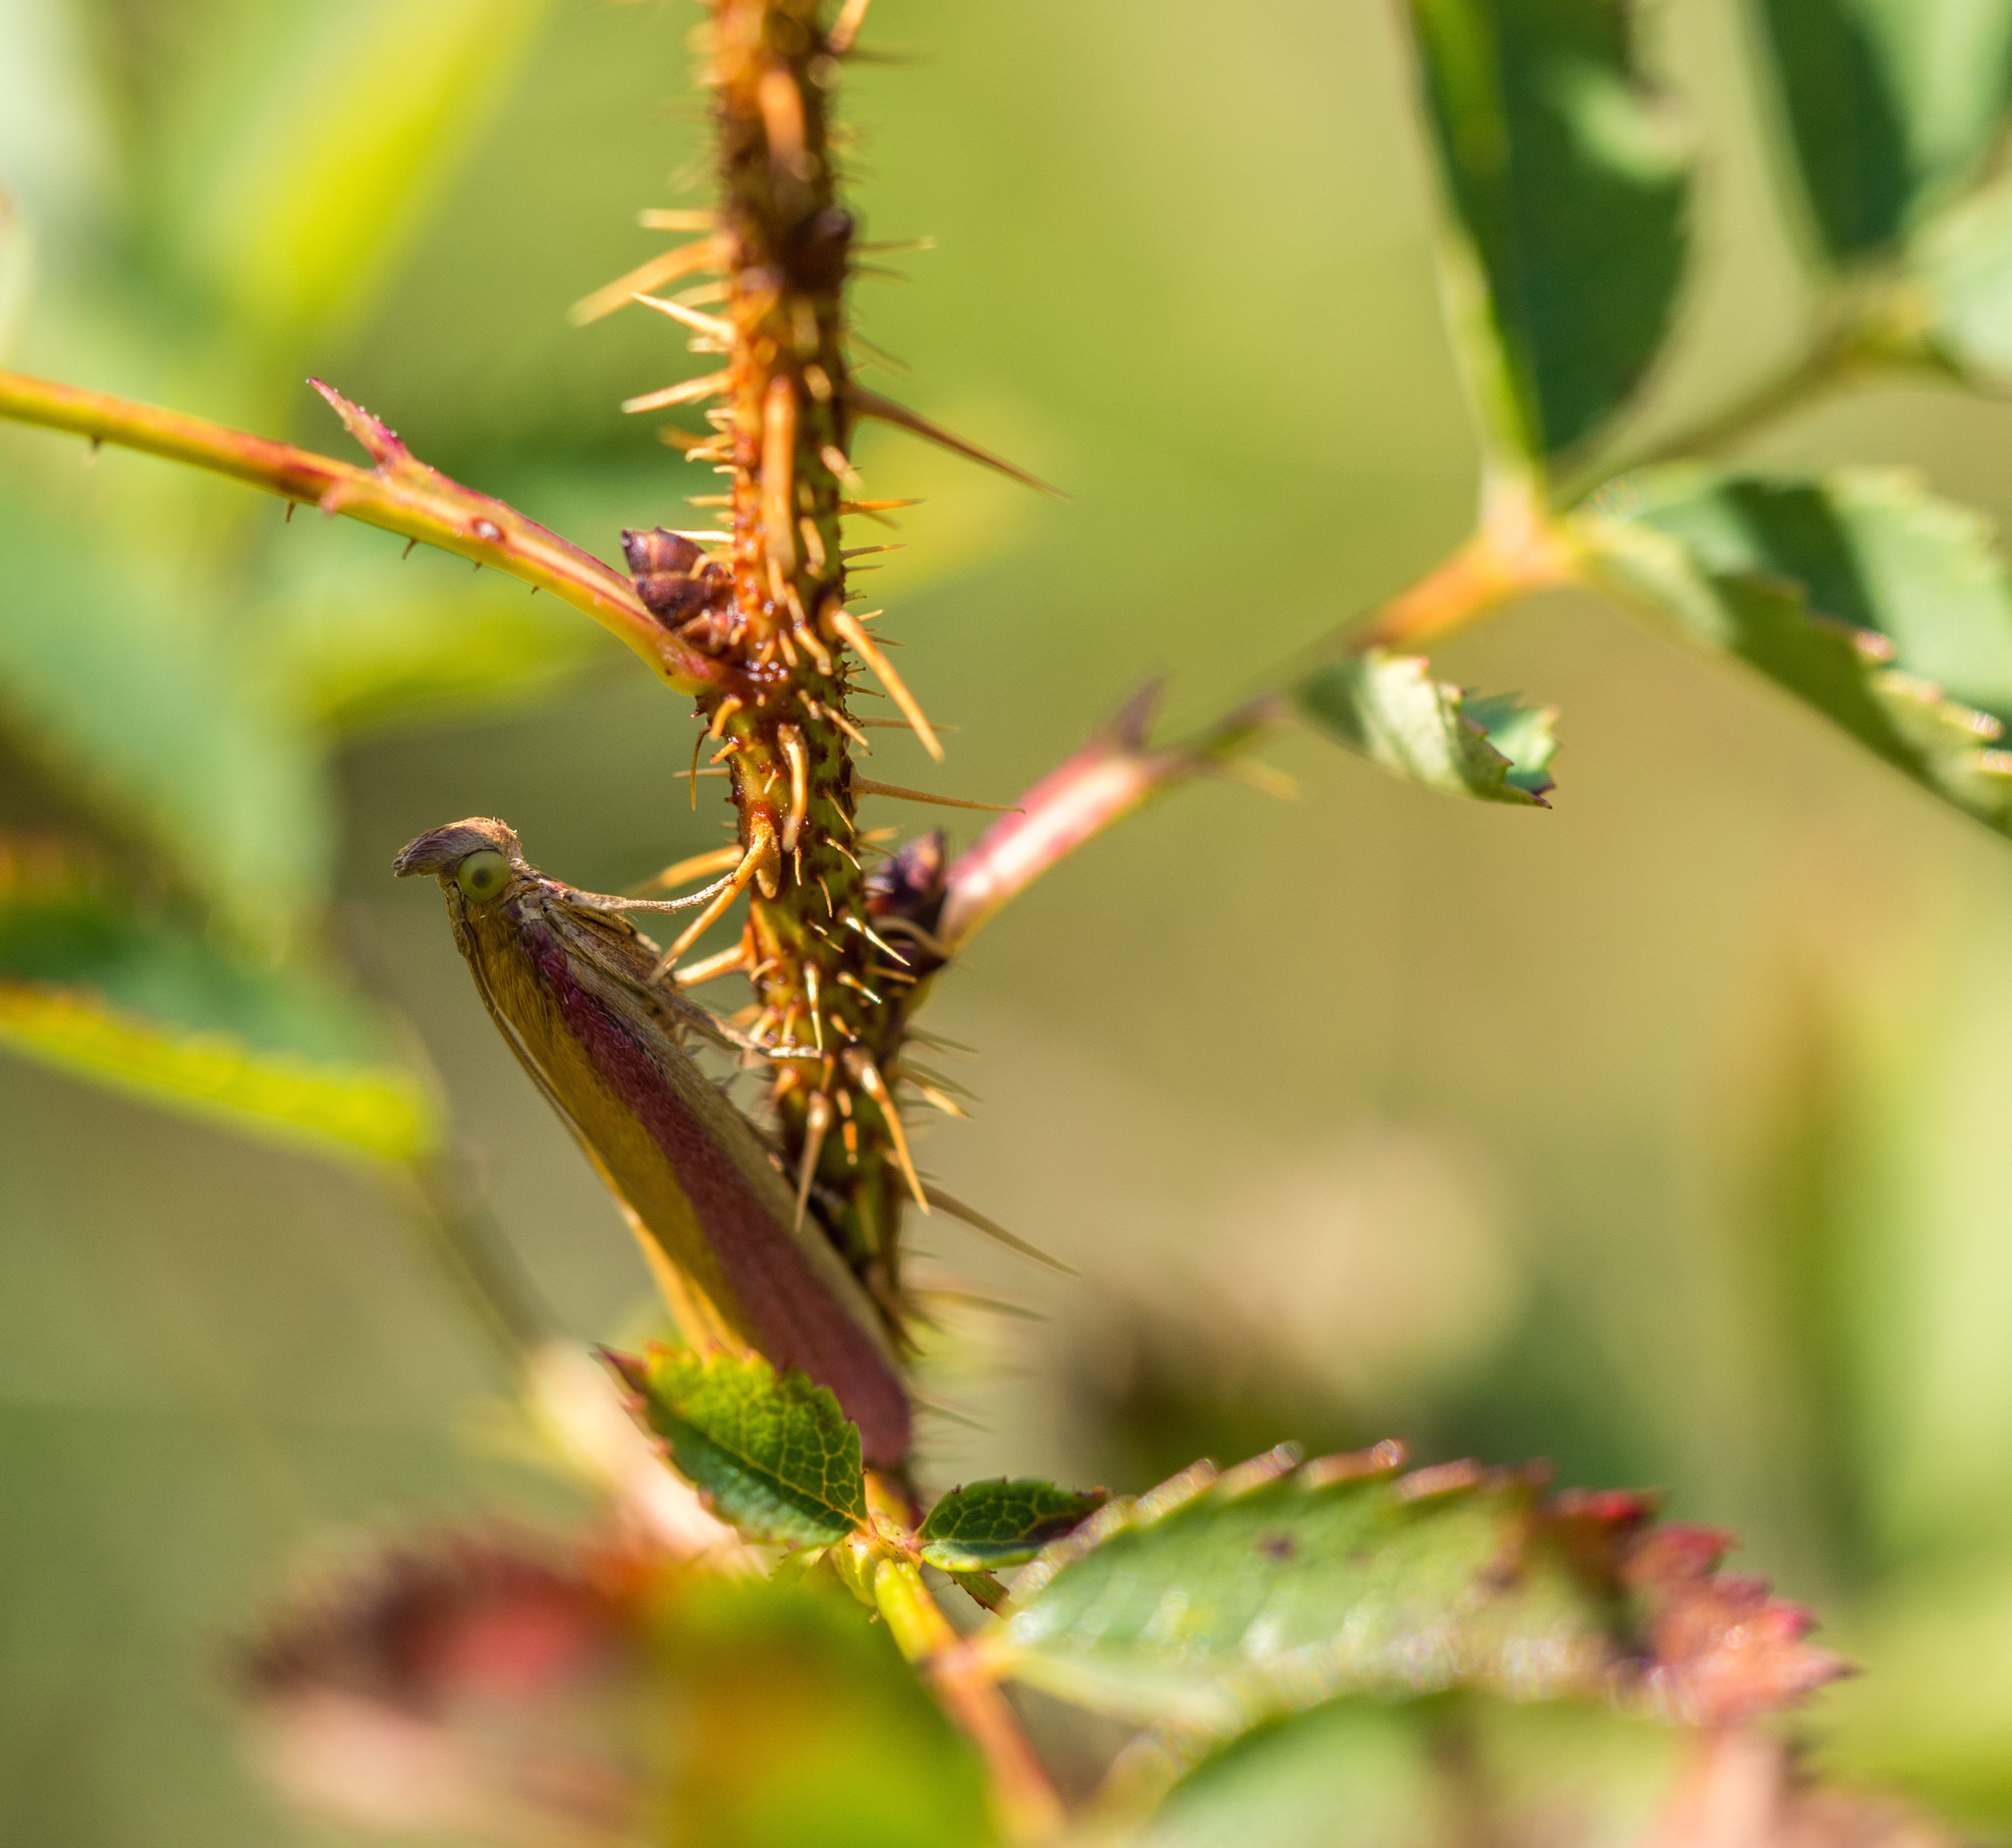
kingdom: Animalia
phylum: Arthropoda
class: Insecta
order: Lepidoptera
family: Pyralidae
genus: Oncocera
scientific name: Oncocera semirubella
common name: Rosy-striped knot-horn
